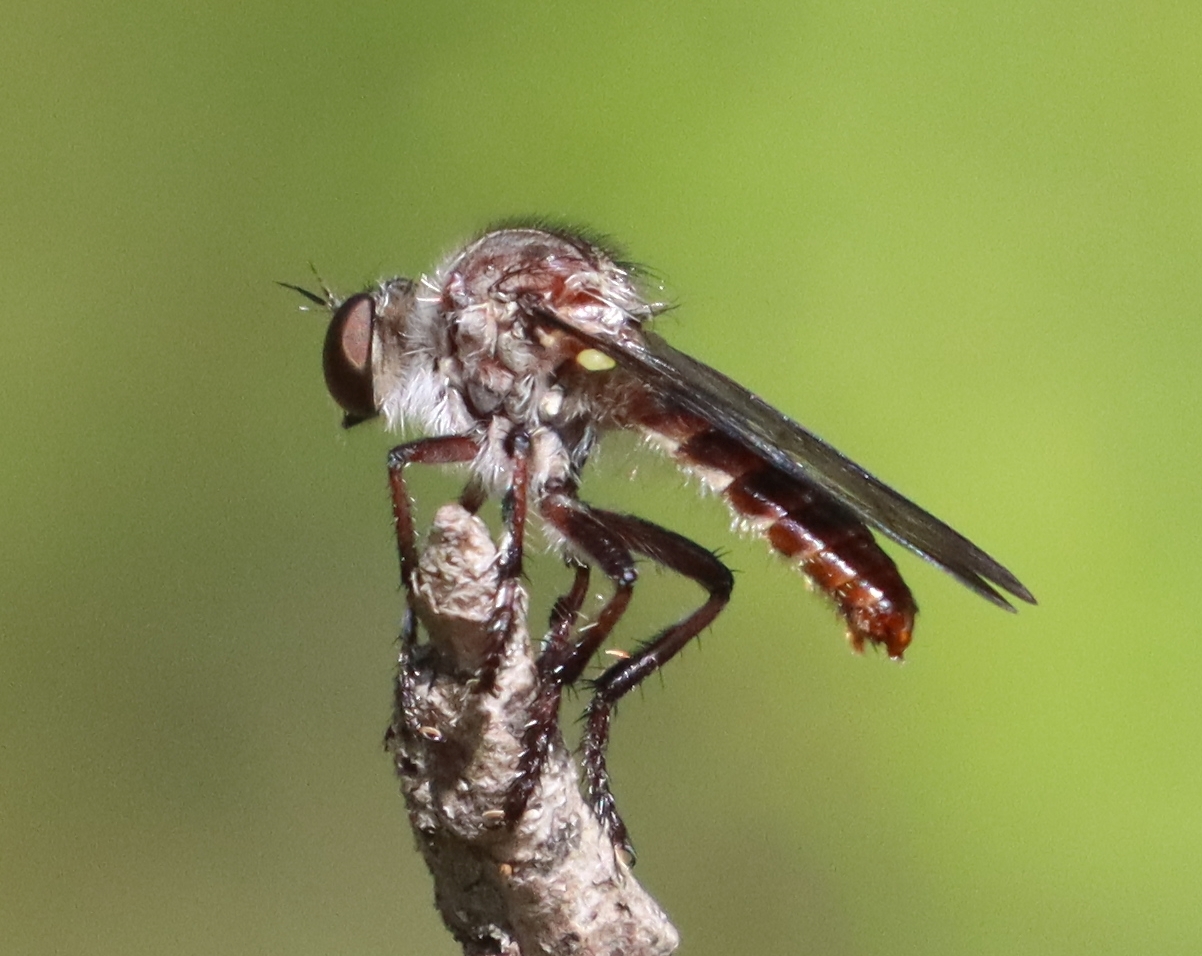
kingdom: Animalia
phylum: Arthropoda
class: Insecta
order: Diptera
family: Asilidae
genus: Heteropogon
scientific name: Heteropogon macerinus
